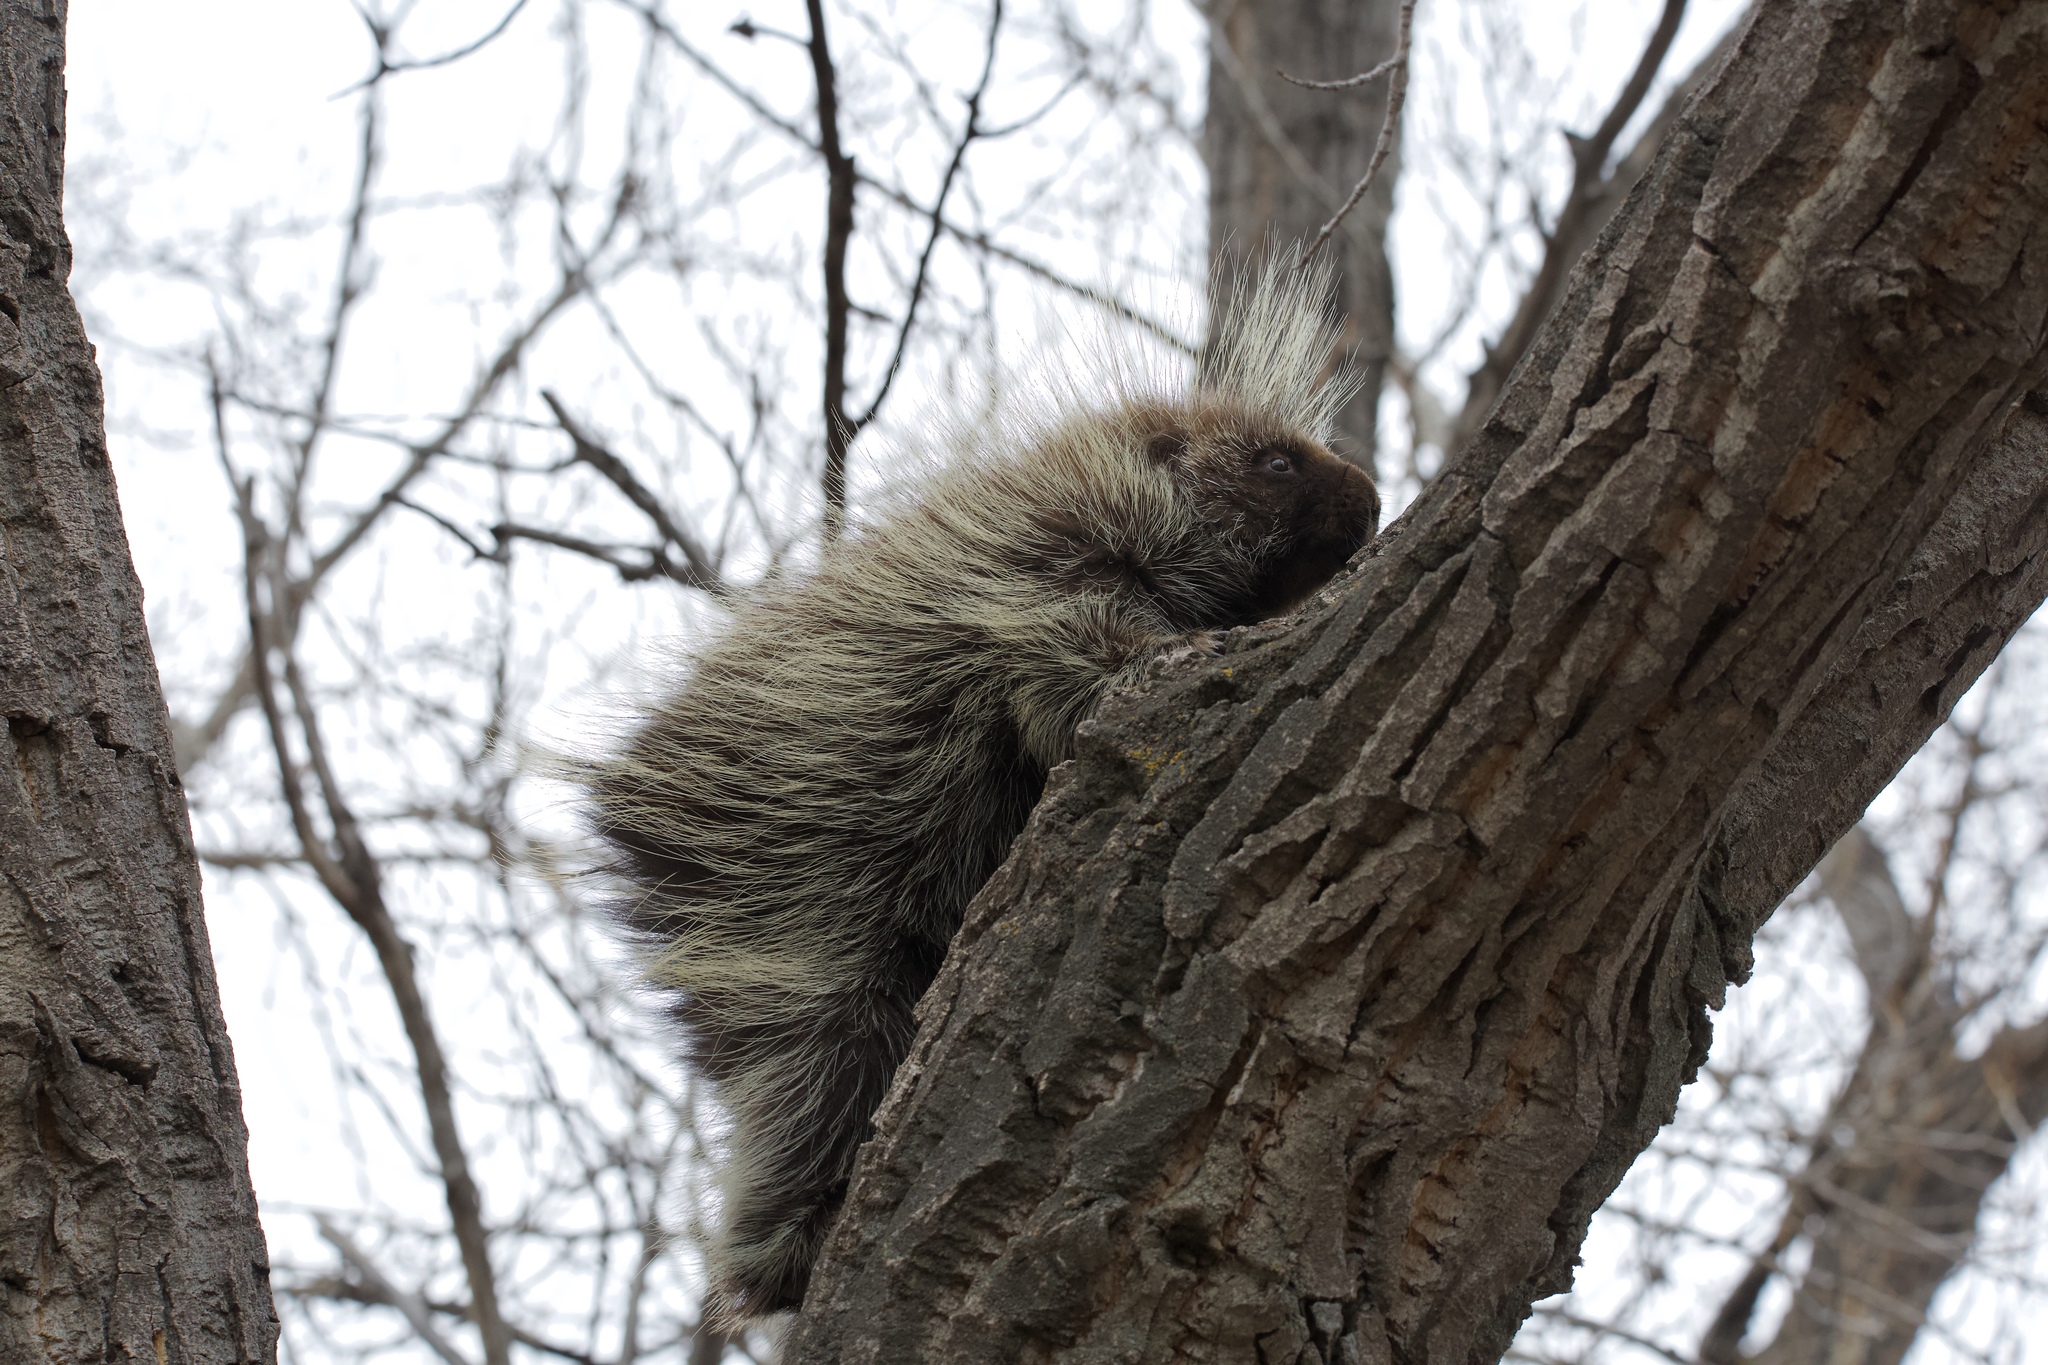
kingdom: Animalia
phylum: Chordata
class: Mammalia
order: Rodentia
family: Erethizontidae
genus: Erethizon
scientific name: Erethizon dorsatus
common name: North american porcupine
